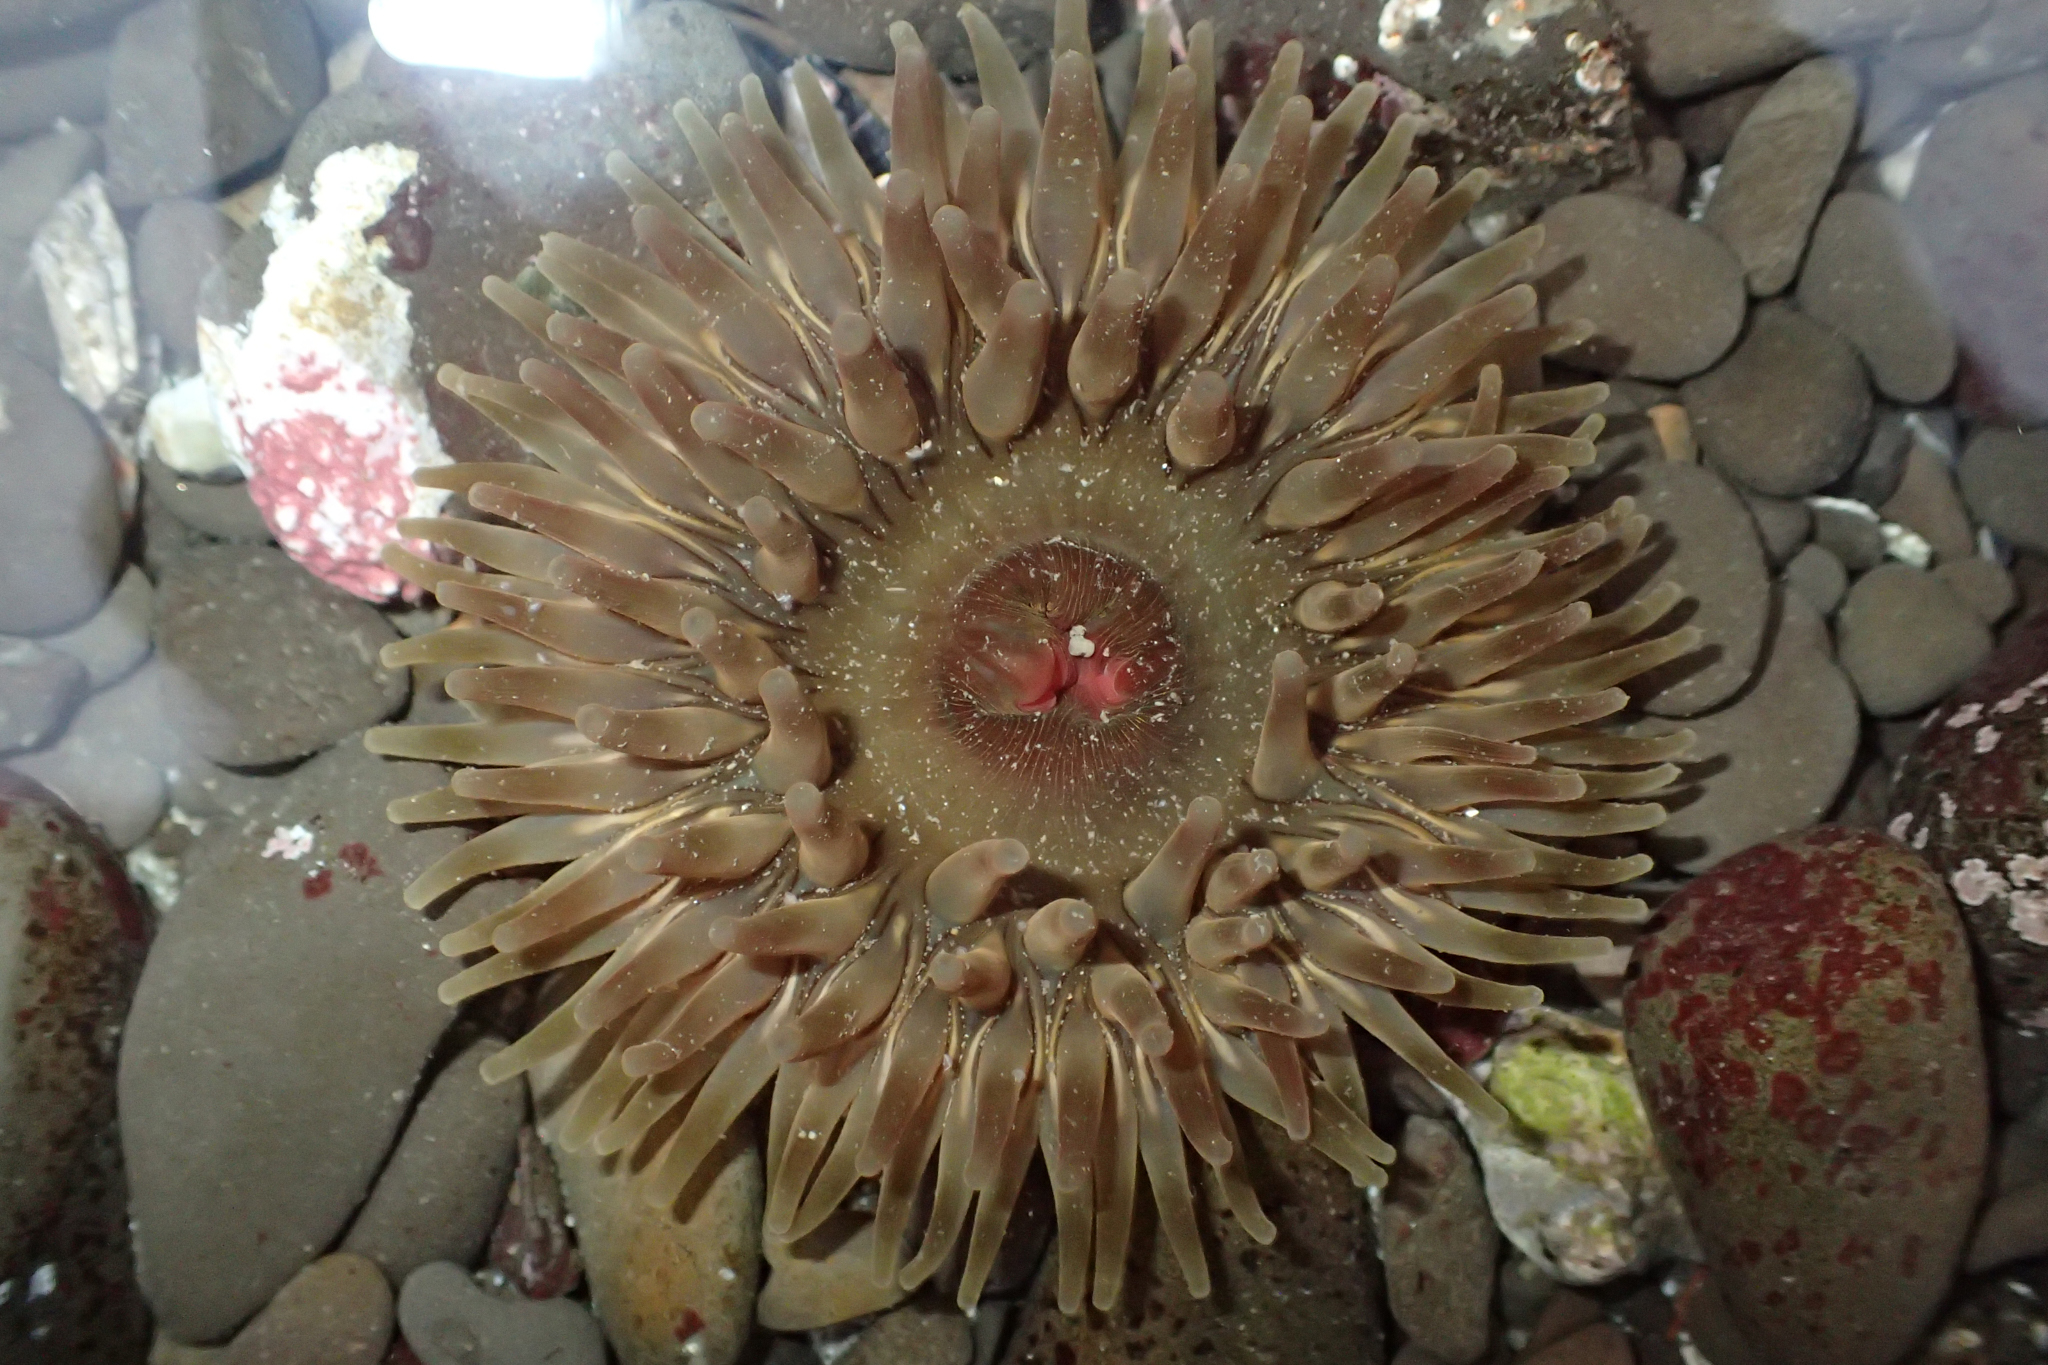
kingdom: Animalia
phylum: Cnidaria
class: Anthozoa
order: Actiniaria
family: Actiniidae
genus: Urticina
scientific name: Urticina clandestina
